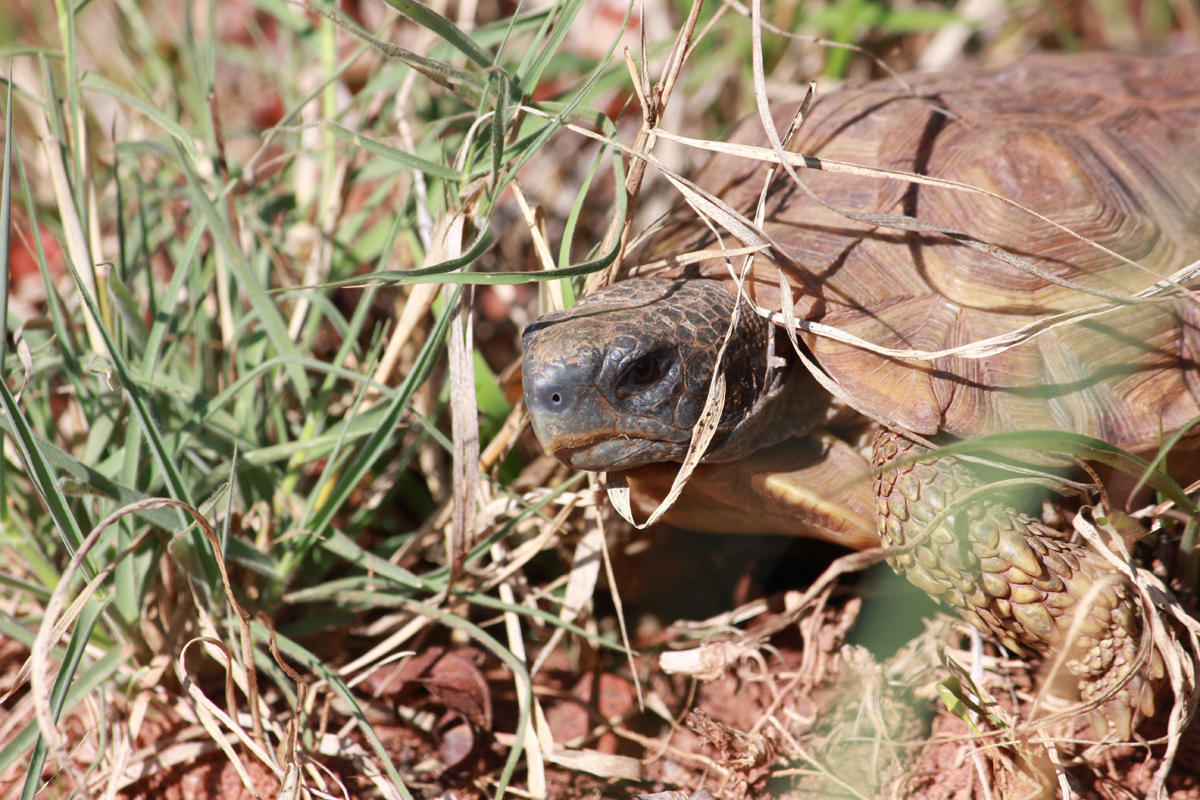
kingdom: Animalia
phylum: Chordata
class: Testudines
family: Testudinidae
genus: Kinixys
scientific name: Kinixys spekii
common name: Speke's hingeback tortoise
